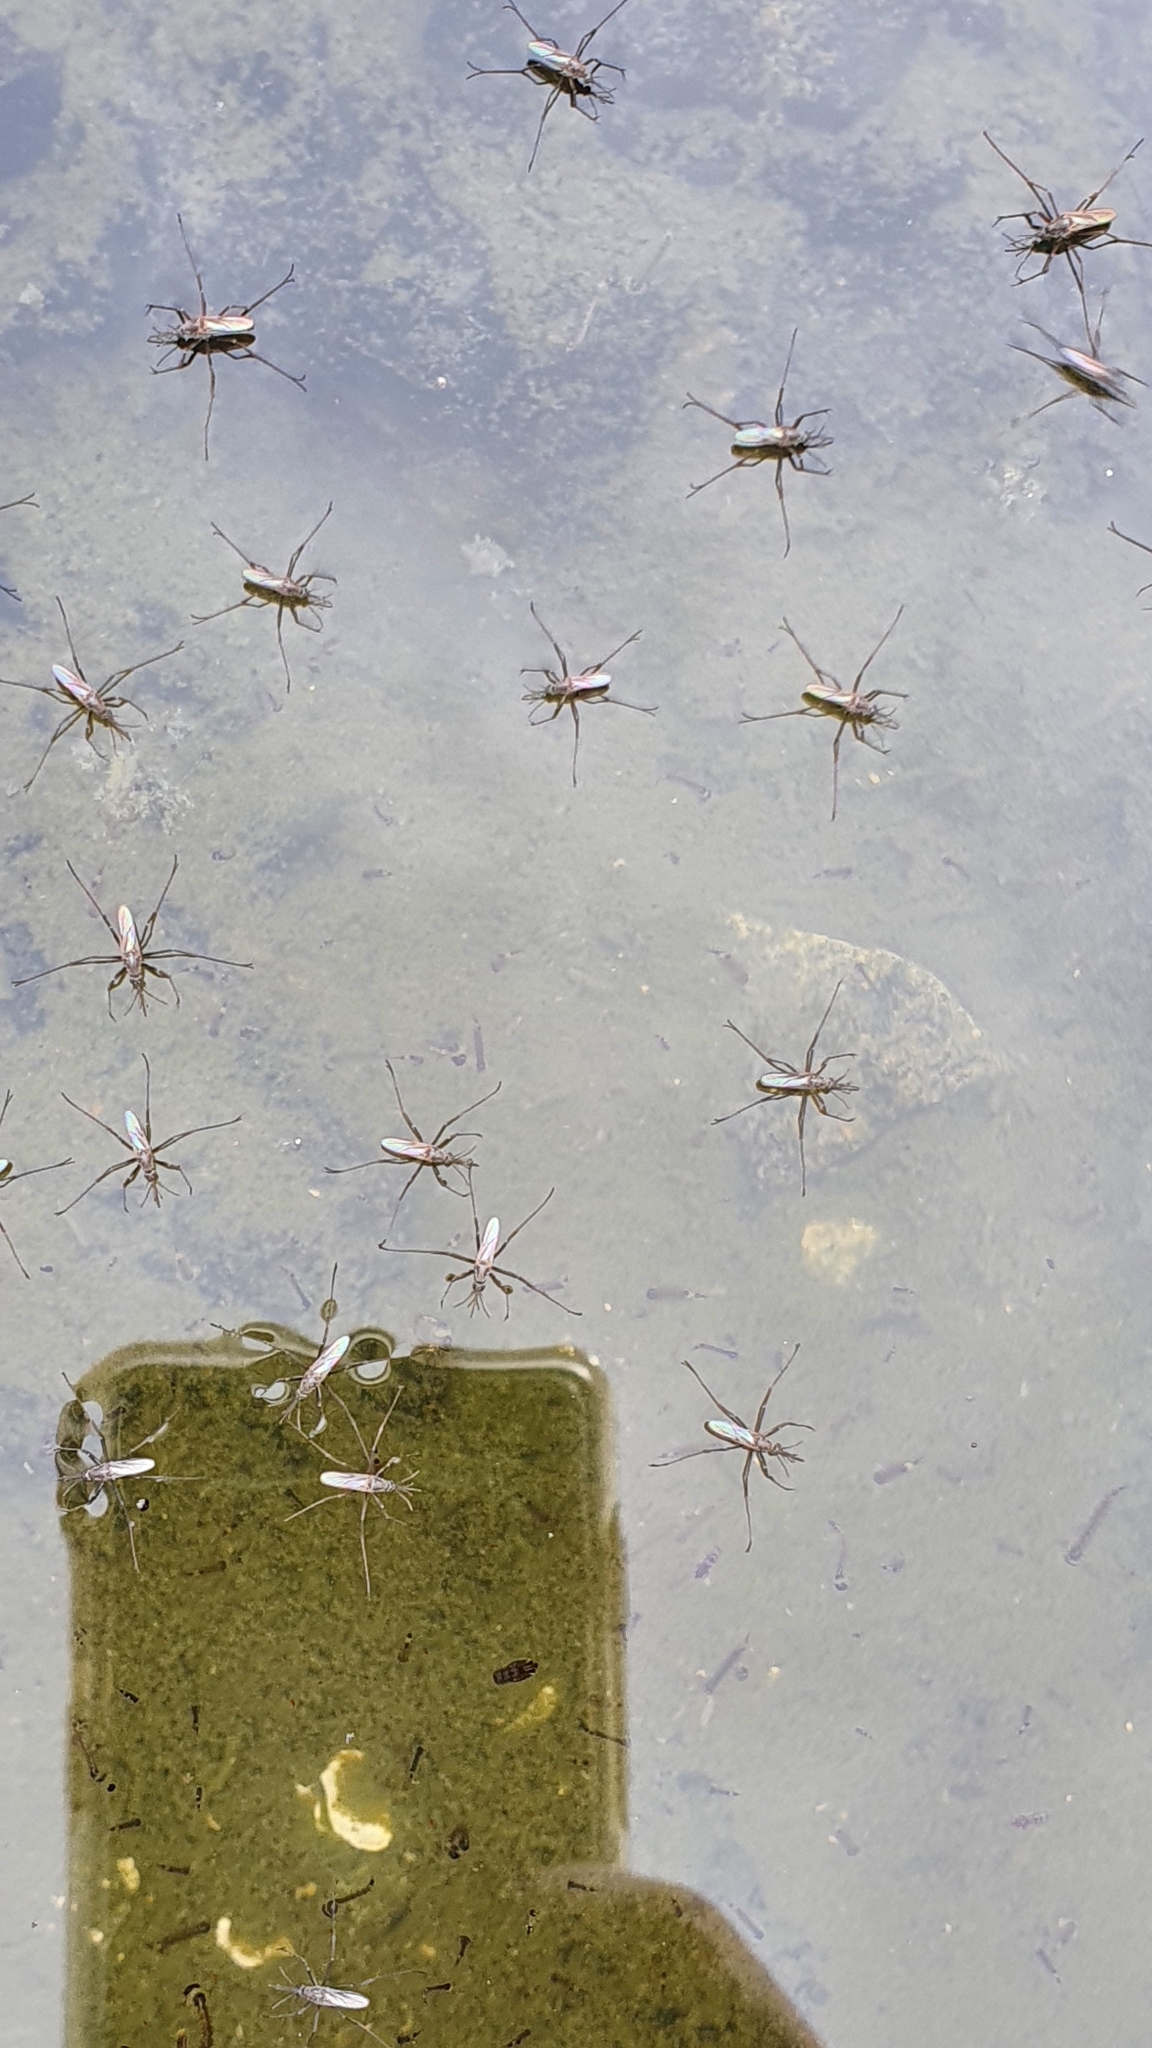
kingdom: Animalia
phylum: Arthropoda
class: Insecta
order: Diptera
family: Culicidae
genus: Opifex
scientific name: Opifex fuscus
